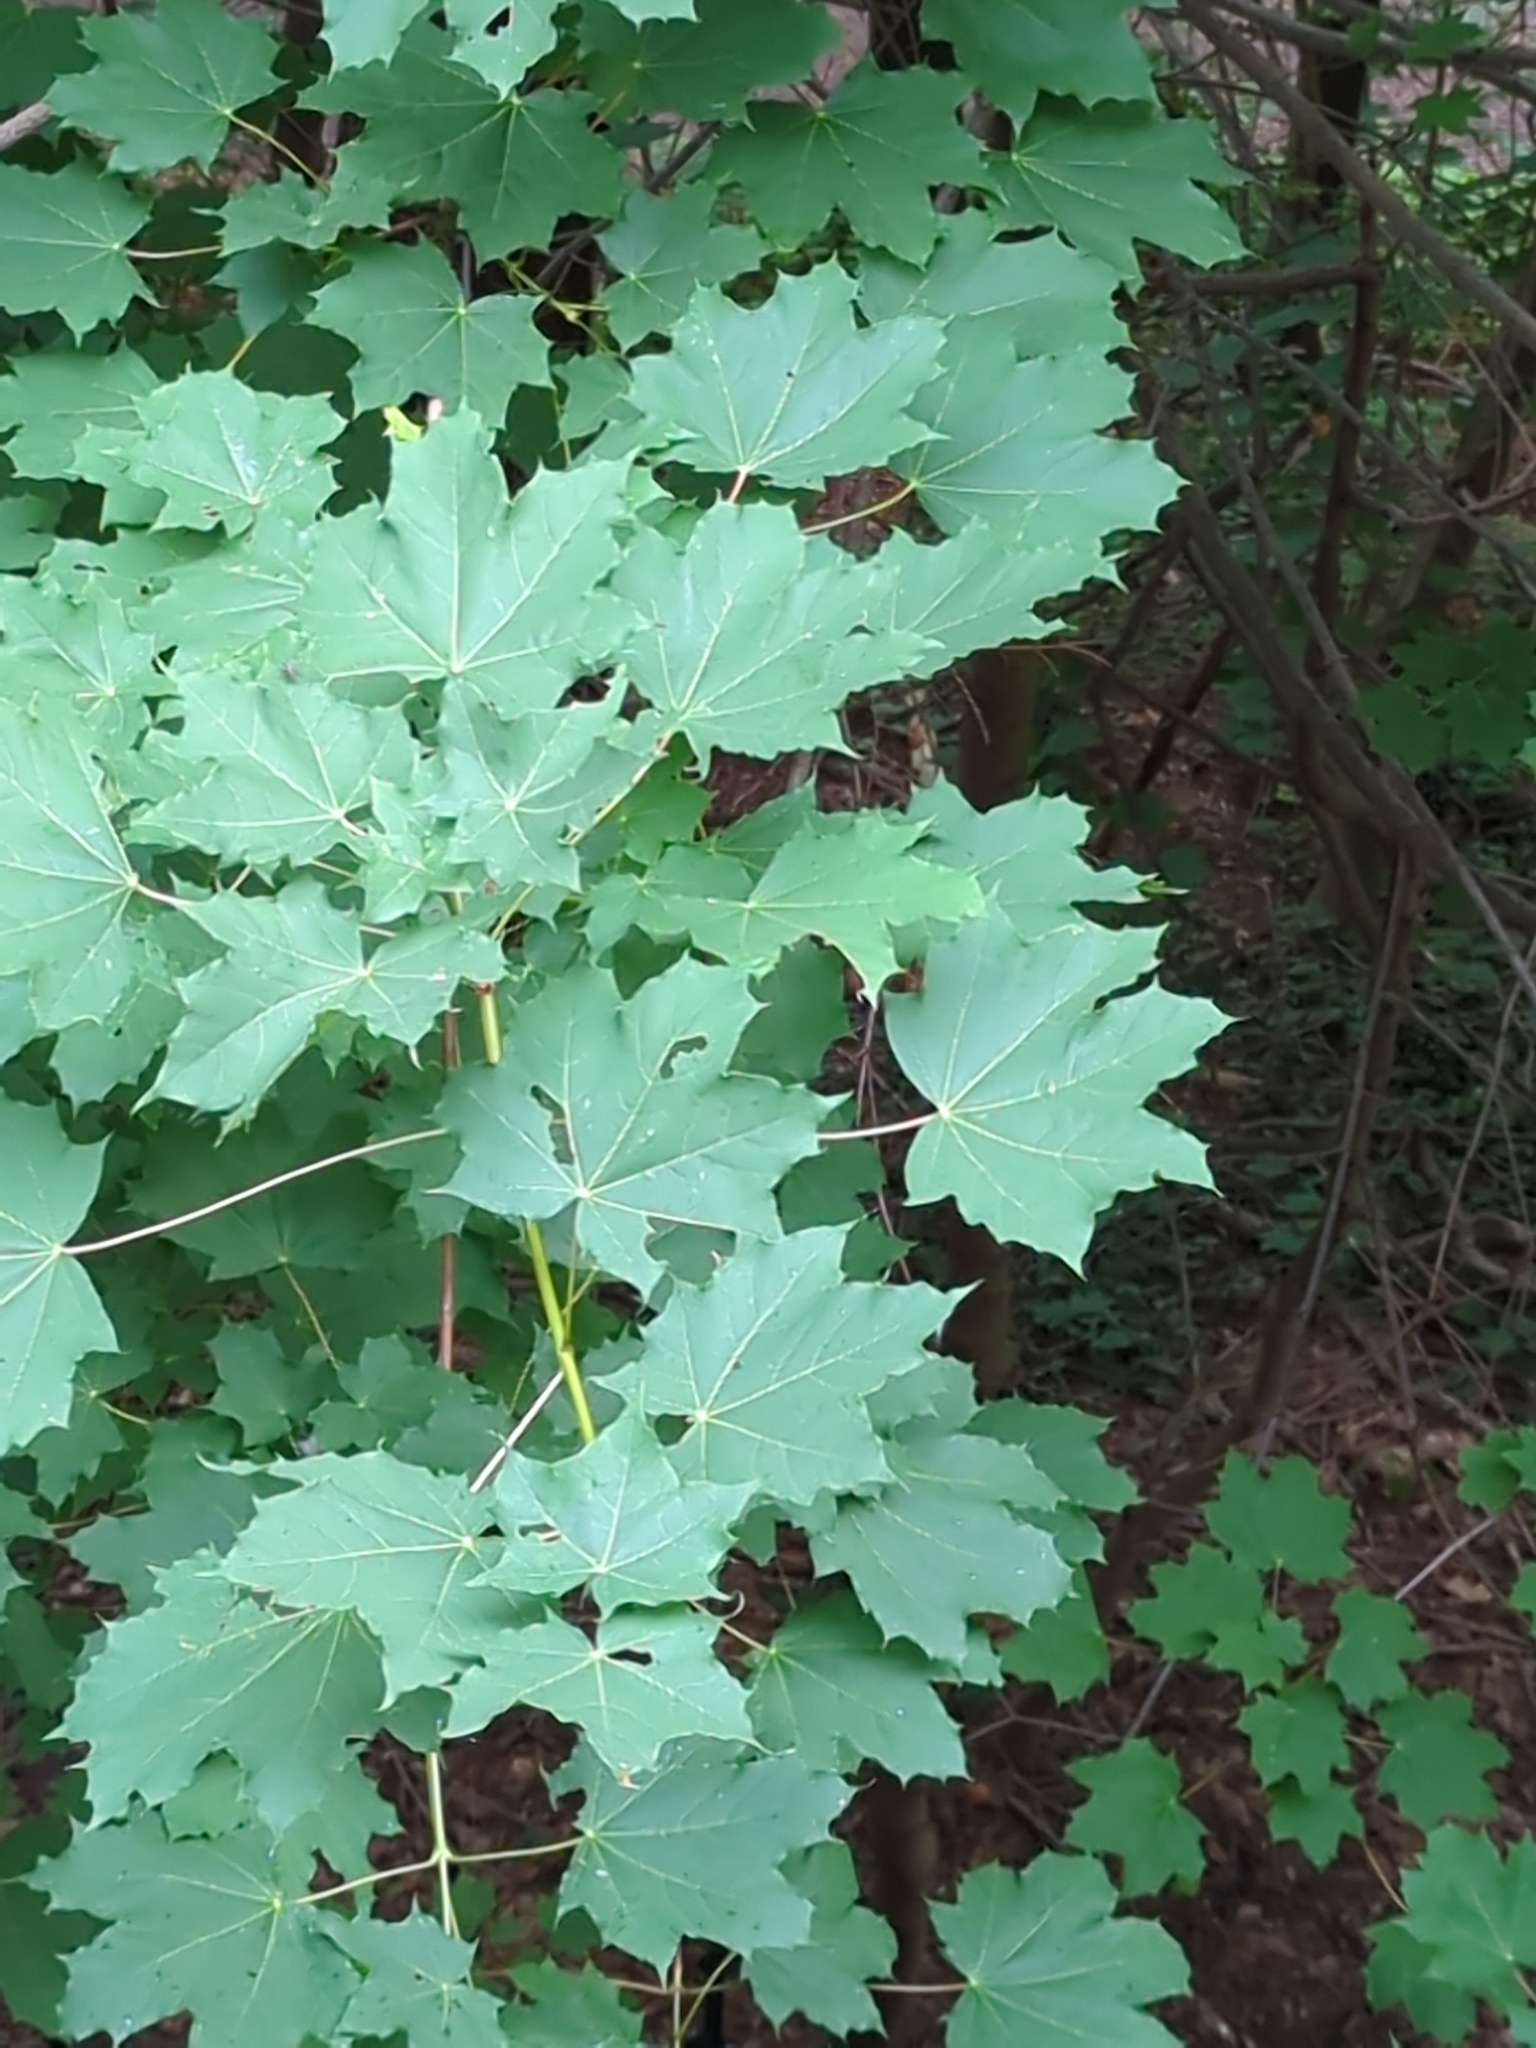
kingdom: Plantae
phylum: Tracheophyta
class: Magnoliopsida
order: Sapindales
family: Sapindaceae
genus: Acer
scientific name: Acer platanoides
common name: Norway maple
